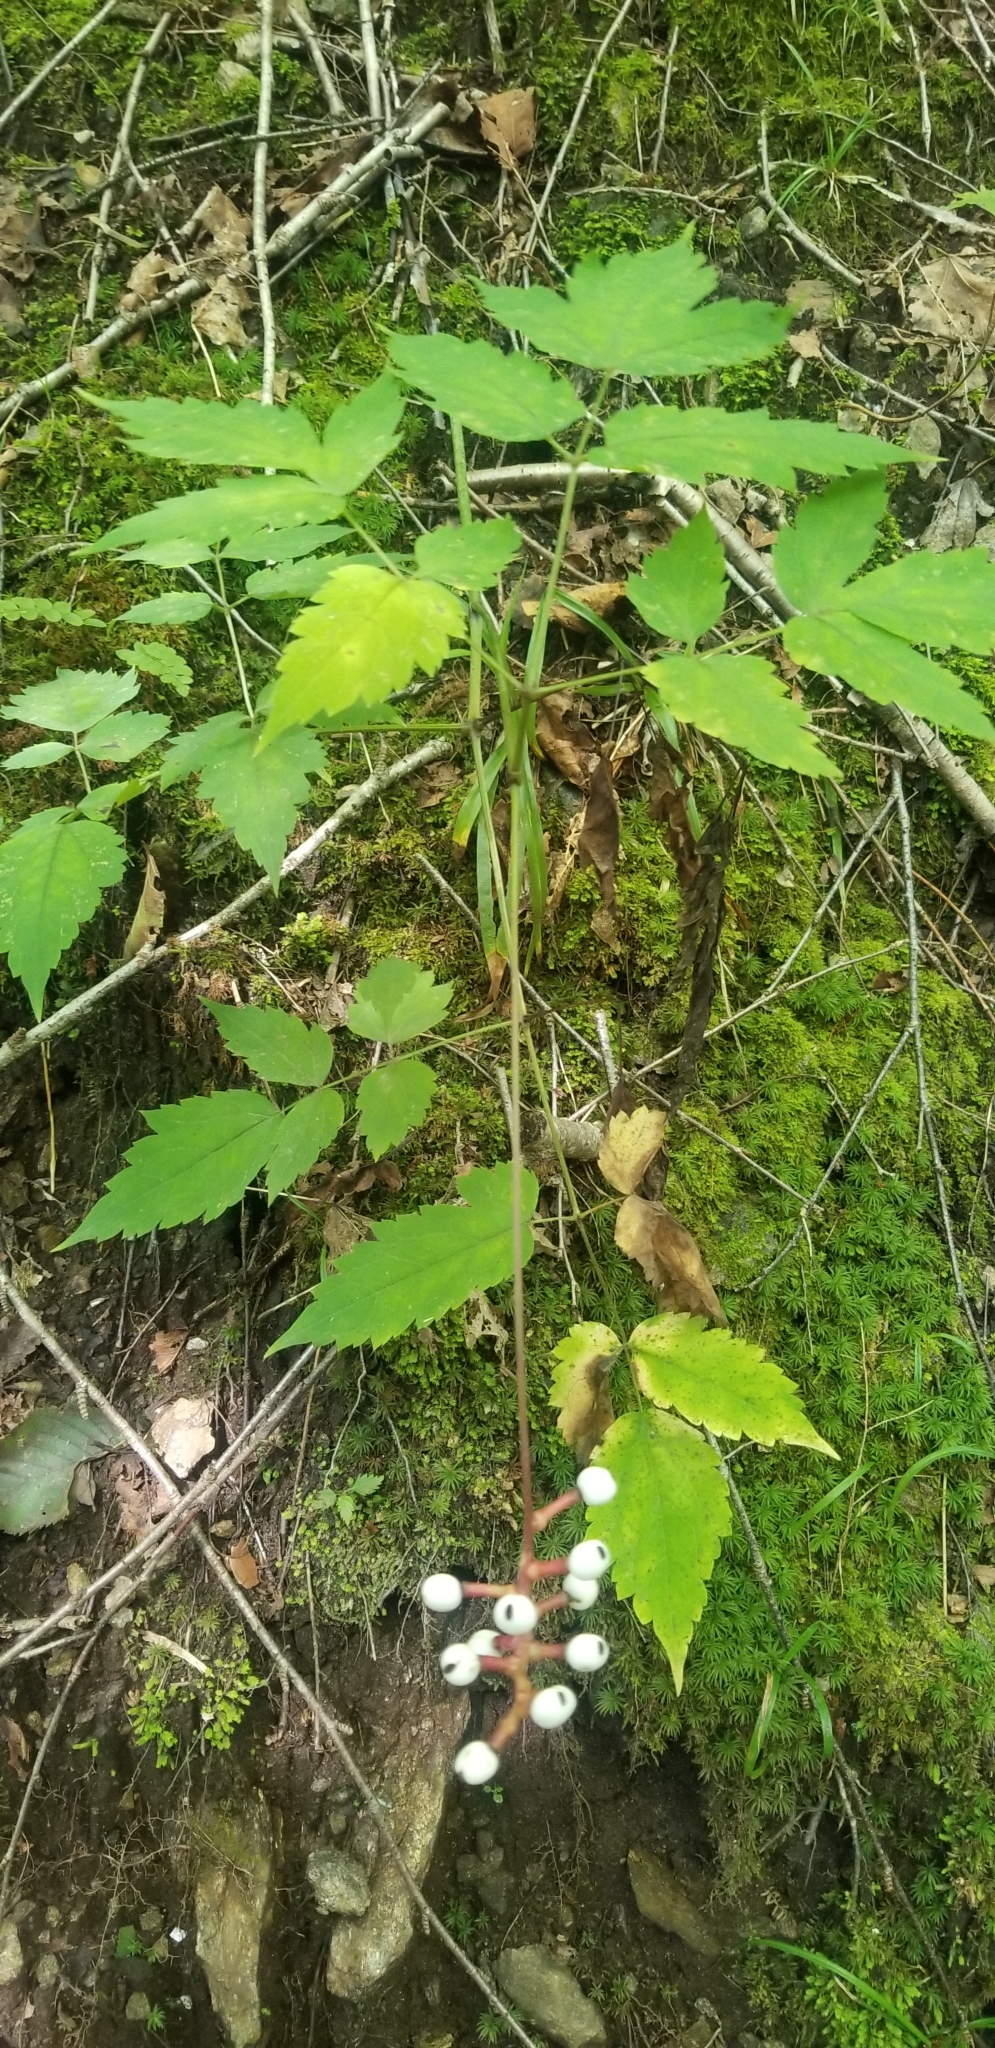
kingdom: Plantae
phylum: Tracheophyta
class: Magnoliopsida
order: Ranunculales
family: Ranunculaceae
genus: Actaea
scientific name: Actaea pachypoda
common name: Doll's-eyes
